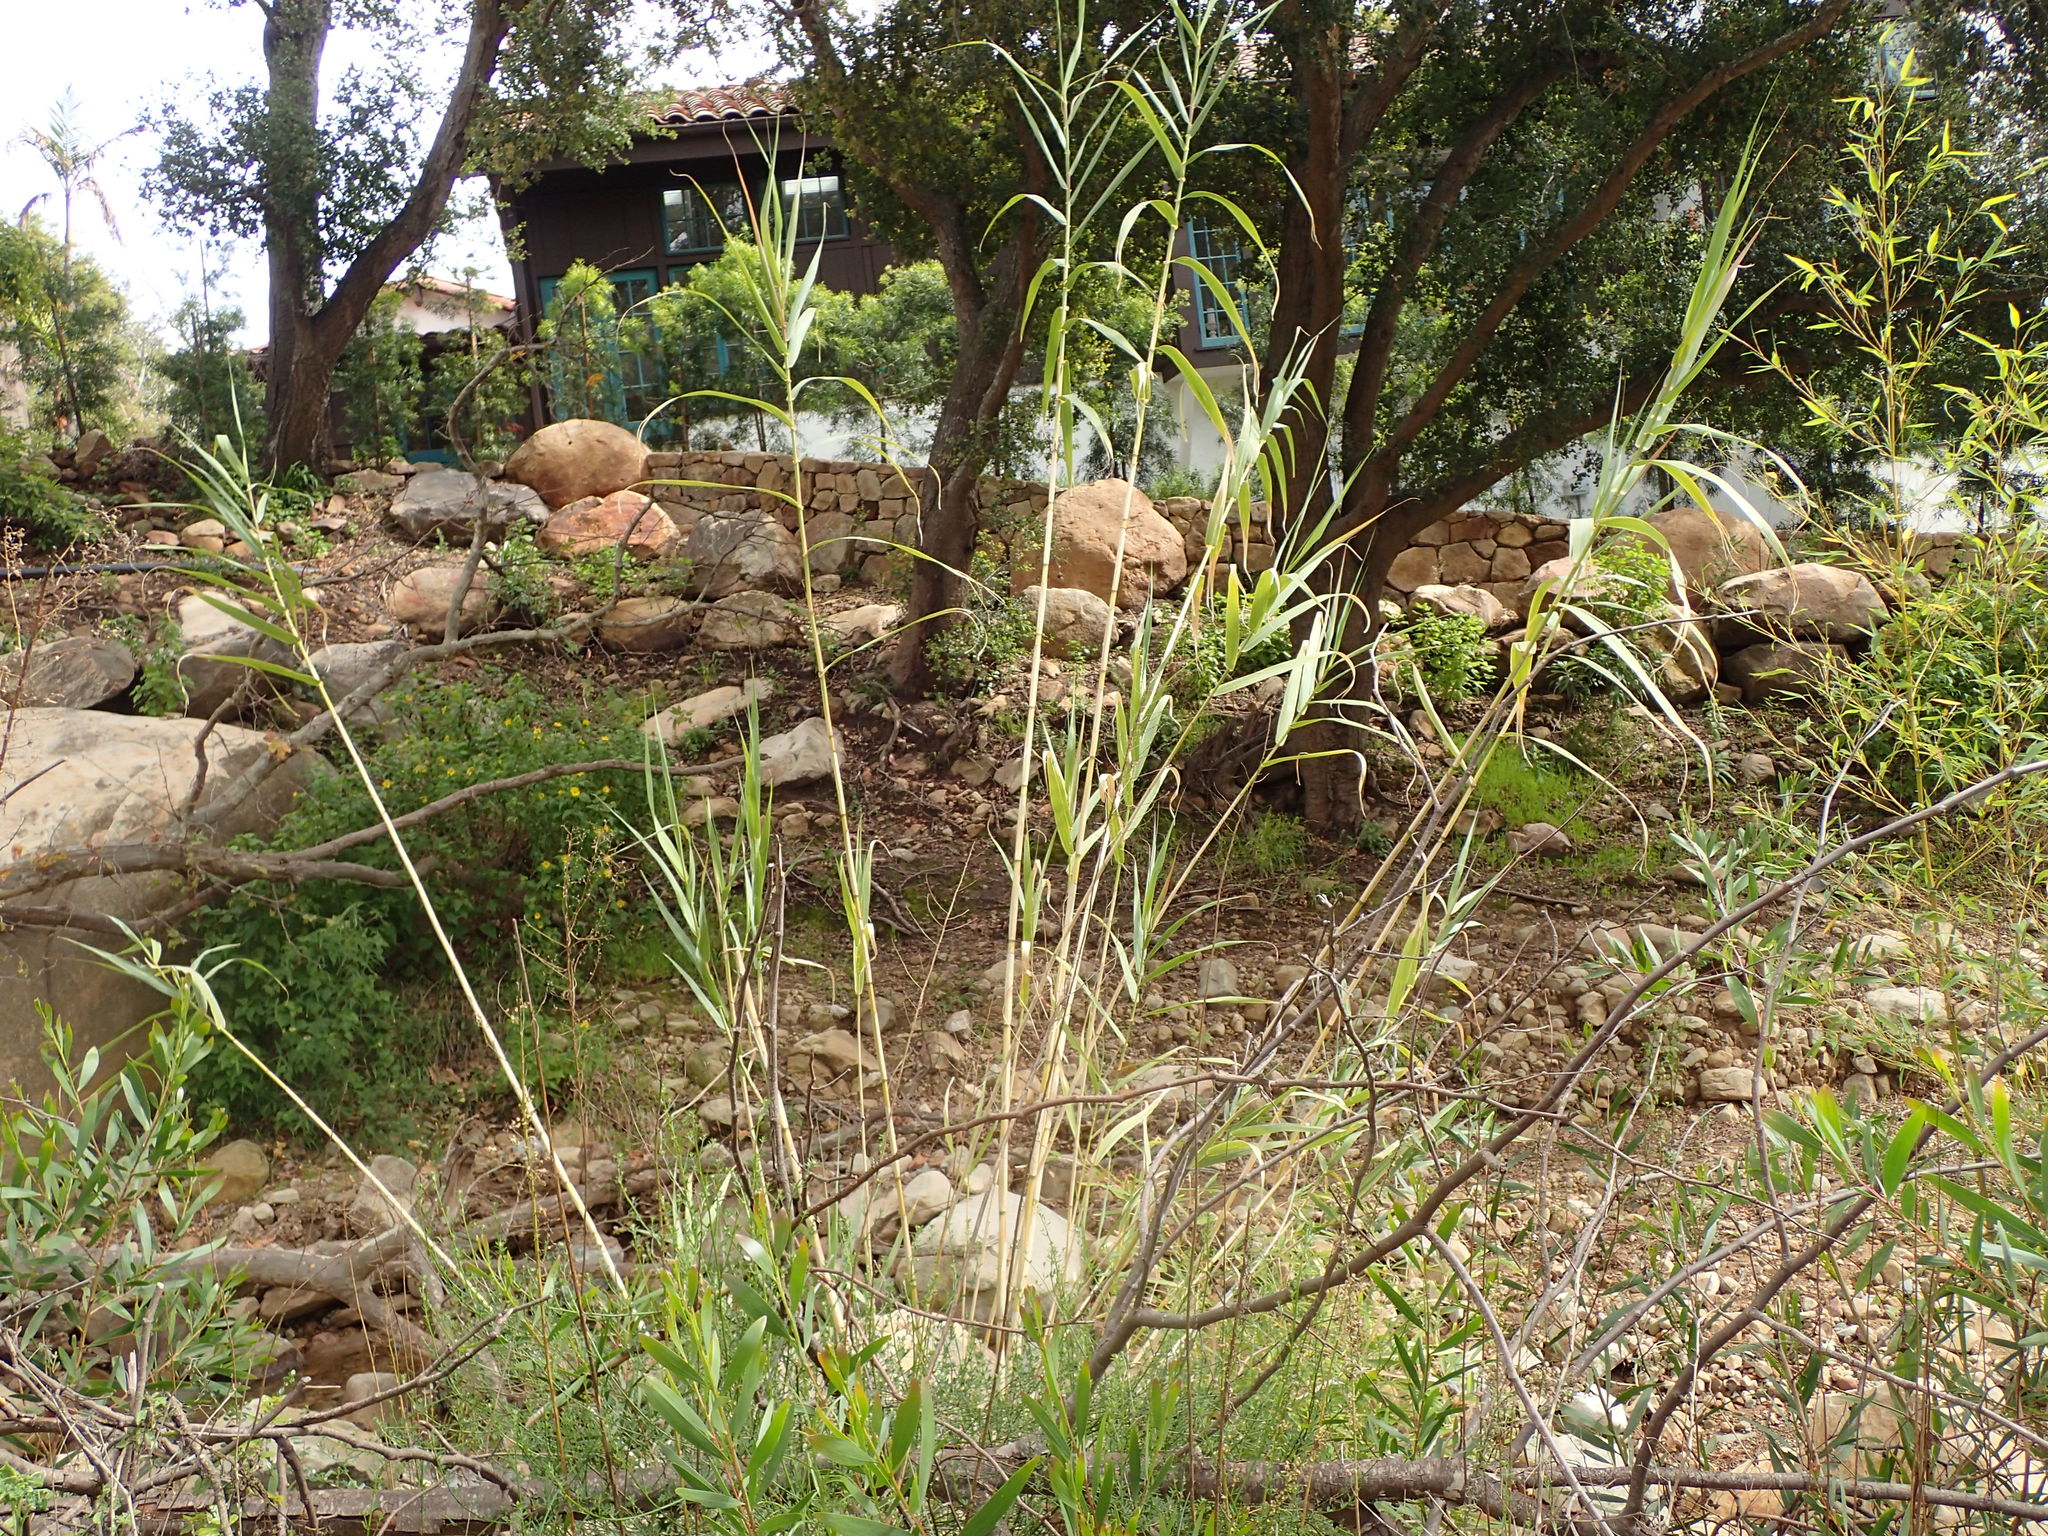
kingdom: Plantae
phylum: Tracheophyta
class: Liliopsida
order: Poales
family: Poaceae
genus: Arundo
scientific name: Arundo donax
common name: Giant reed
